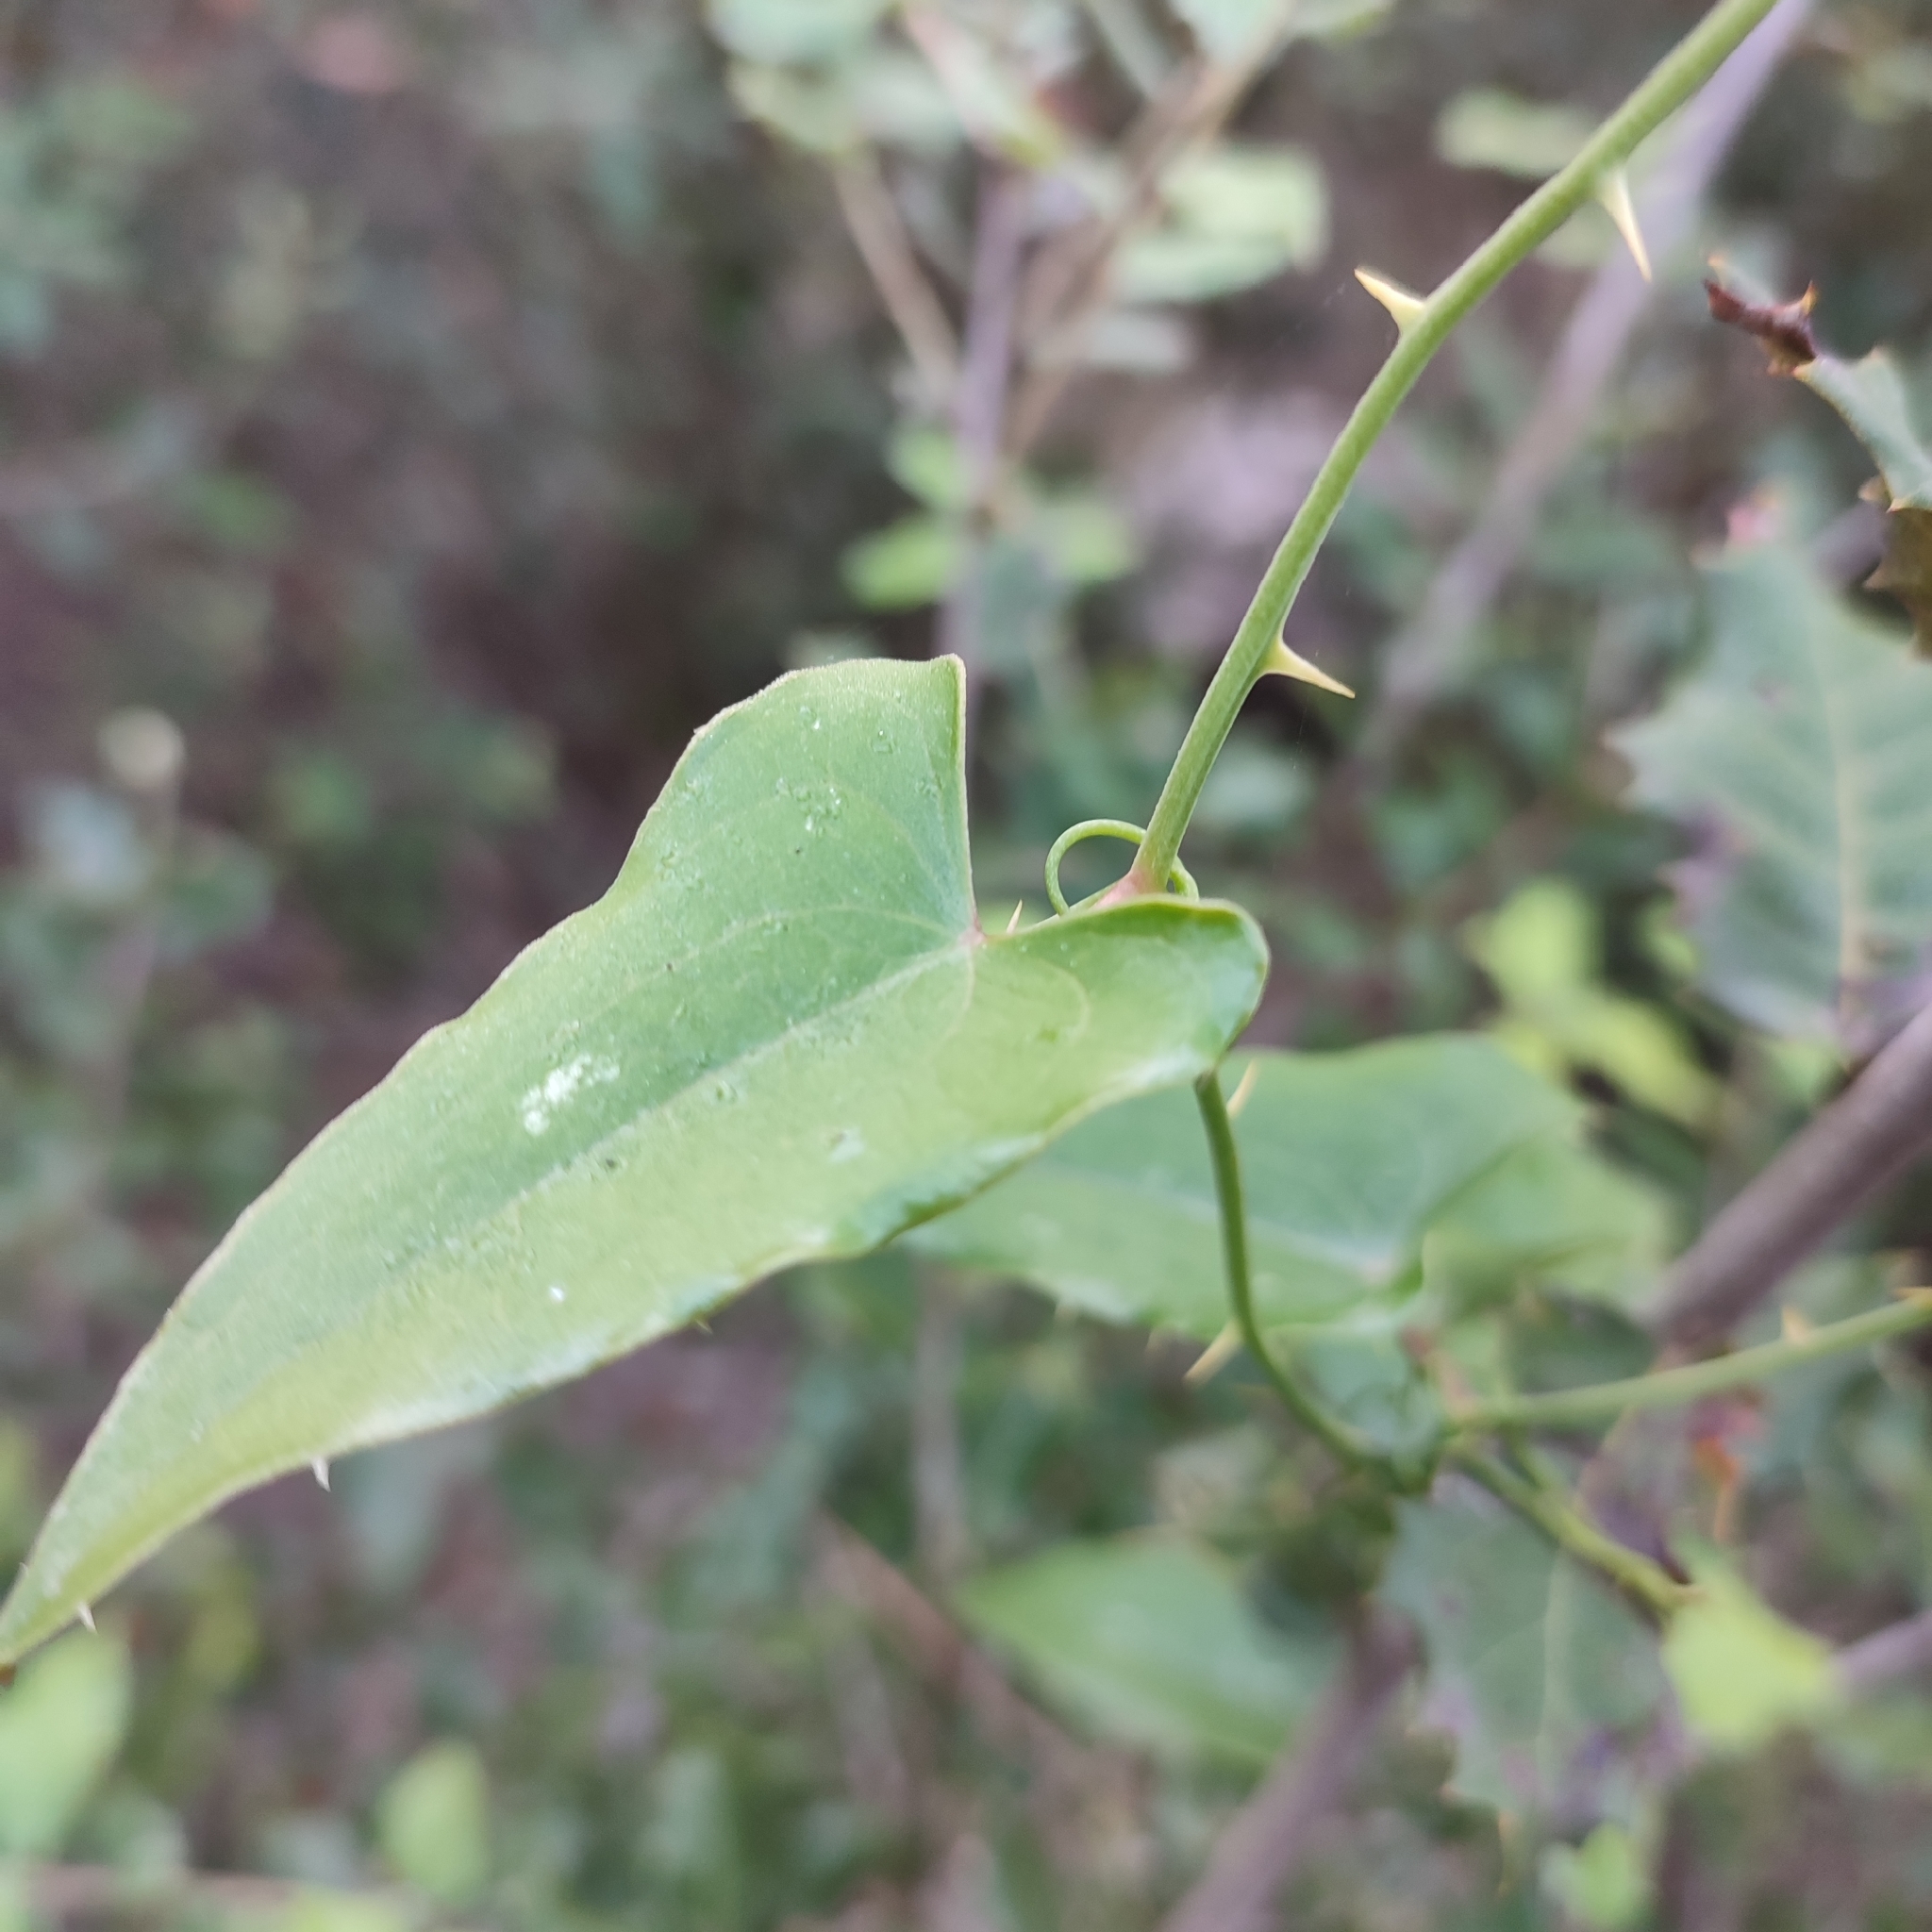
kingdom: Plantae
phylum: Tracheophyta
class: Liliopsida
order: Liliales
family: Smilacaceae
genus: Smilax
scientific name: Smilax aspera
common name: Common smilax
